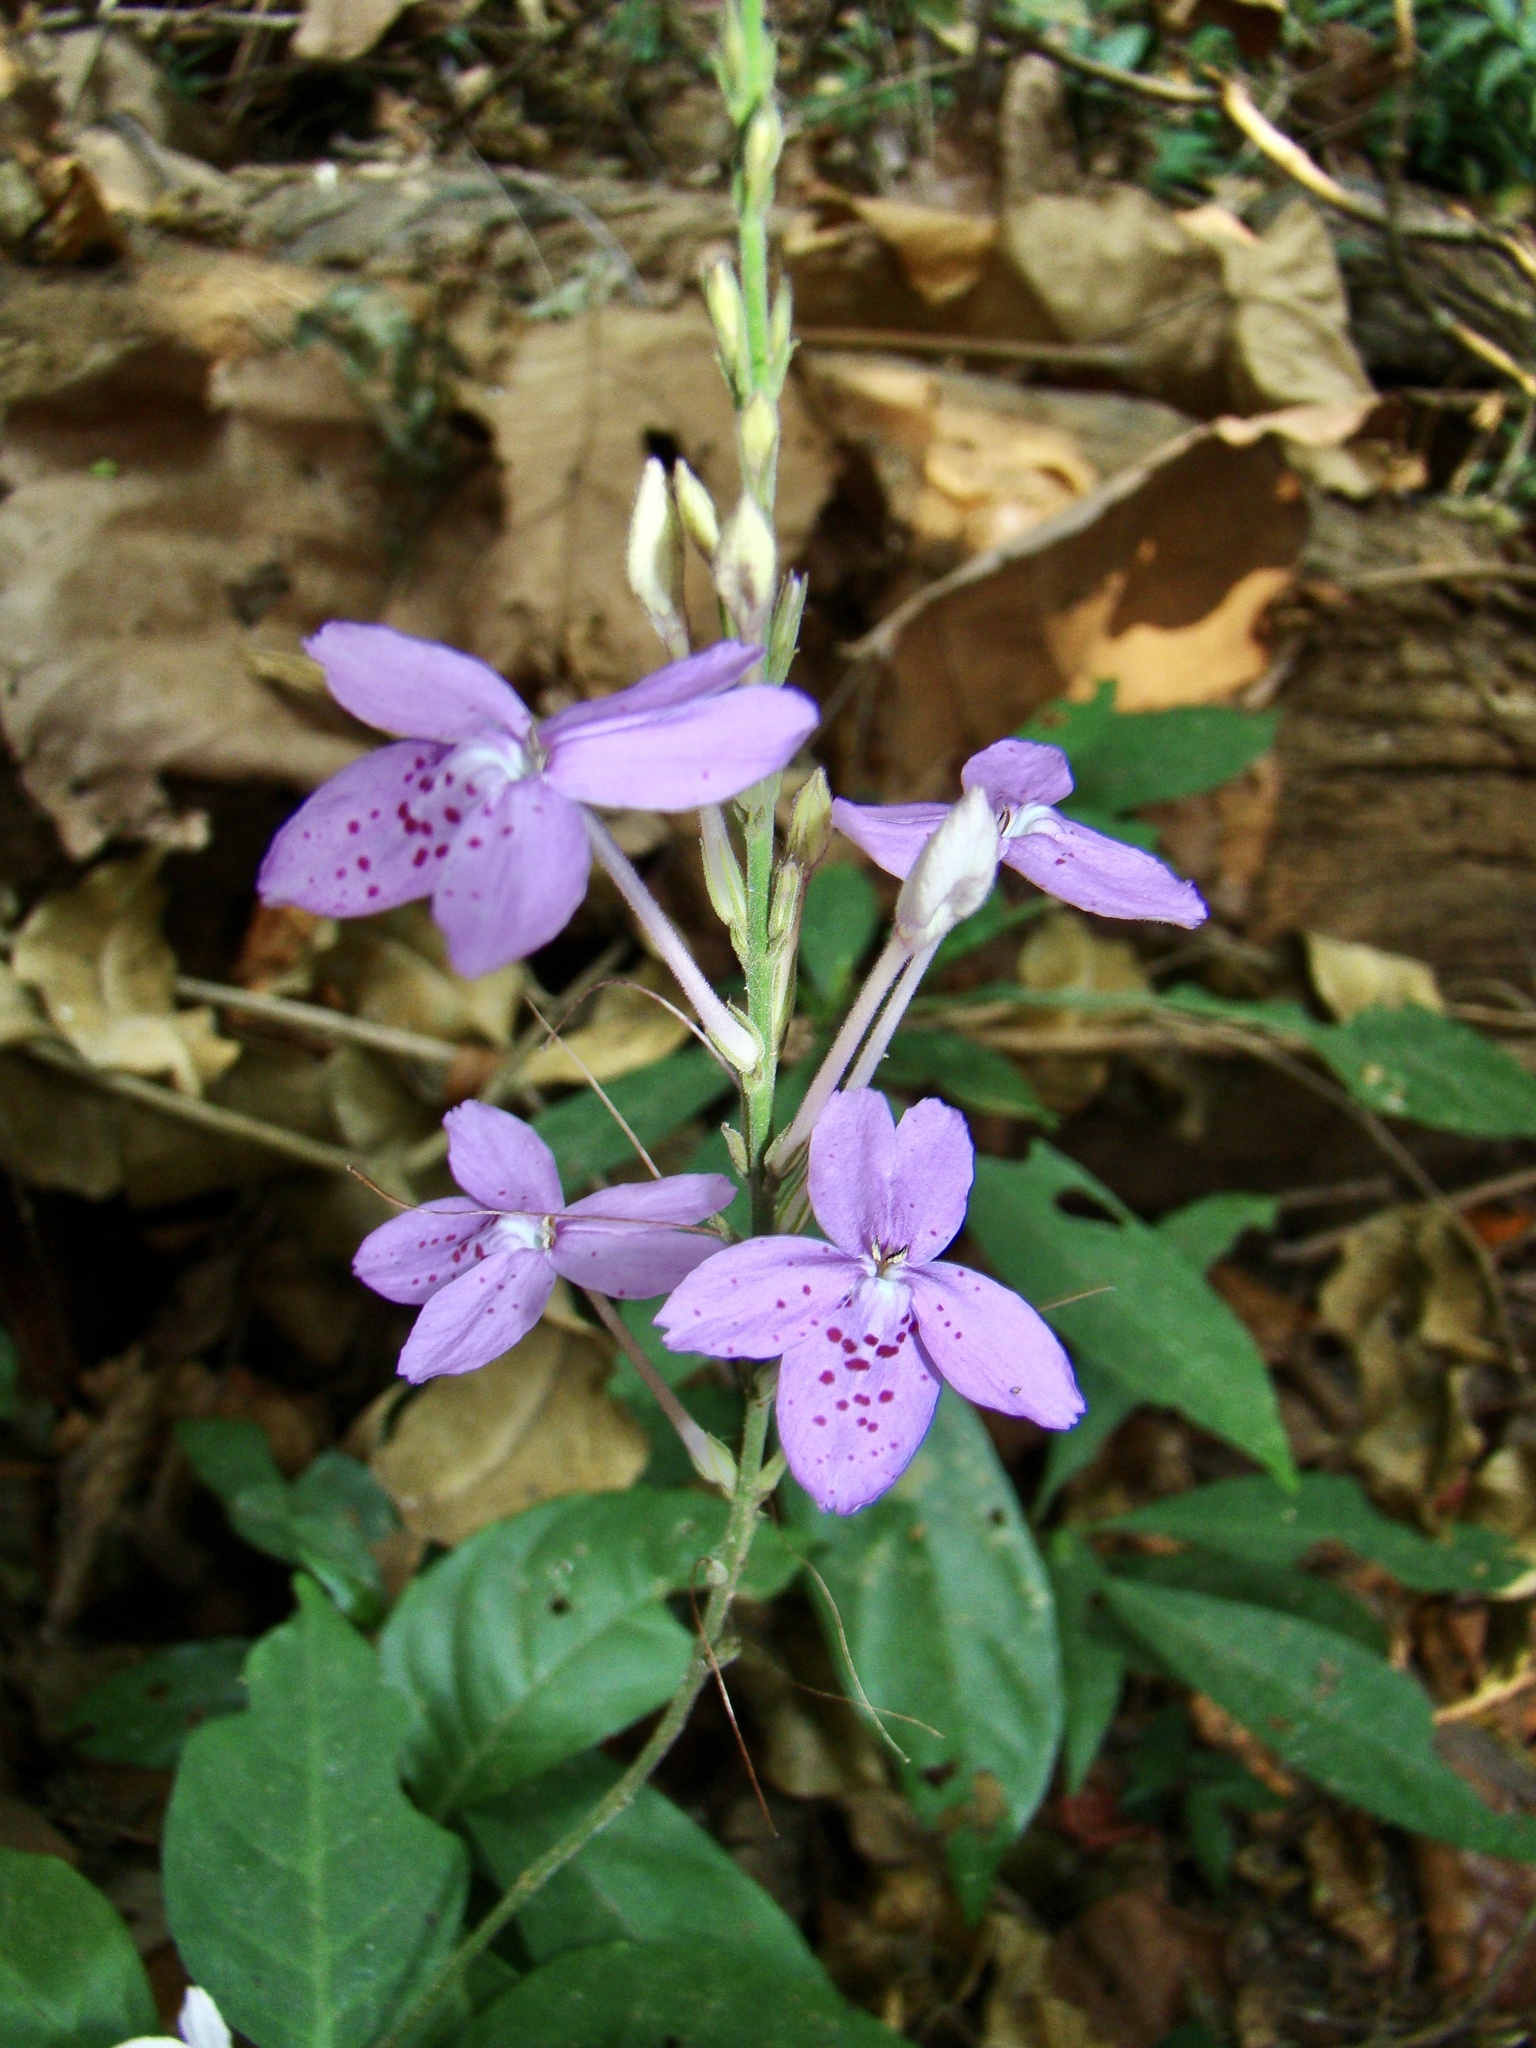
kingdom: Plantae
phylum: Tracheophyta
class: Magnoliopsida
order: Lamiales
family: Acanthaceae
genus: Pseuderanthemum
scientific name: Pseuderanthemum crenulatum
